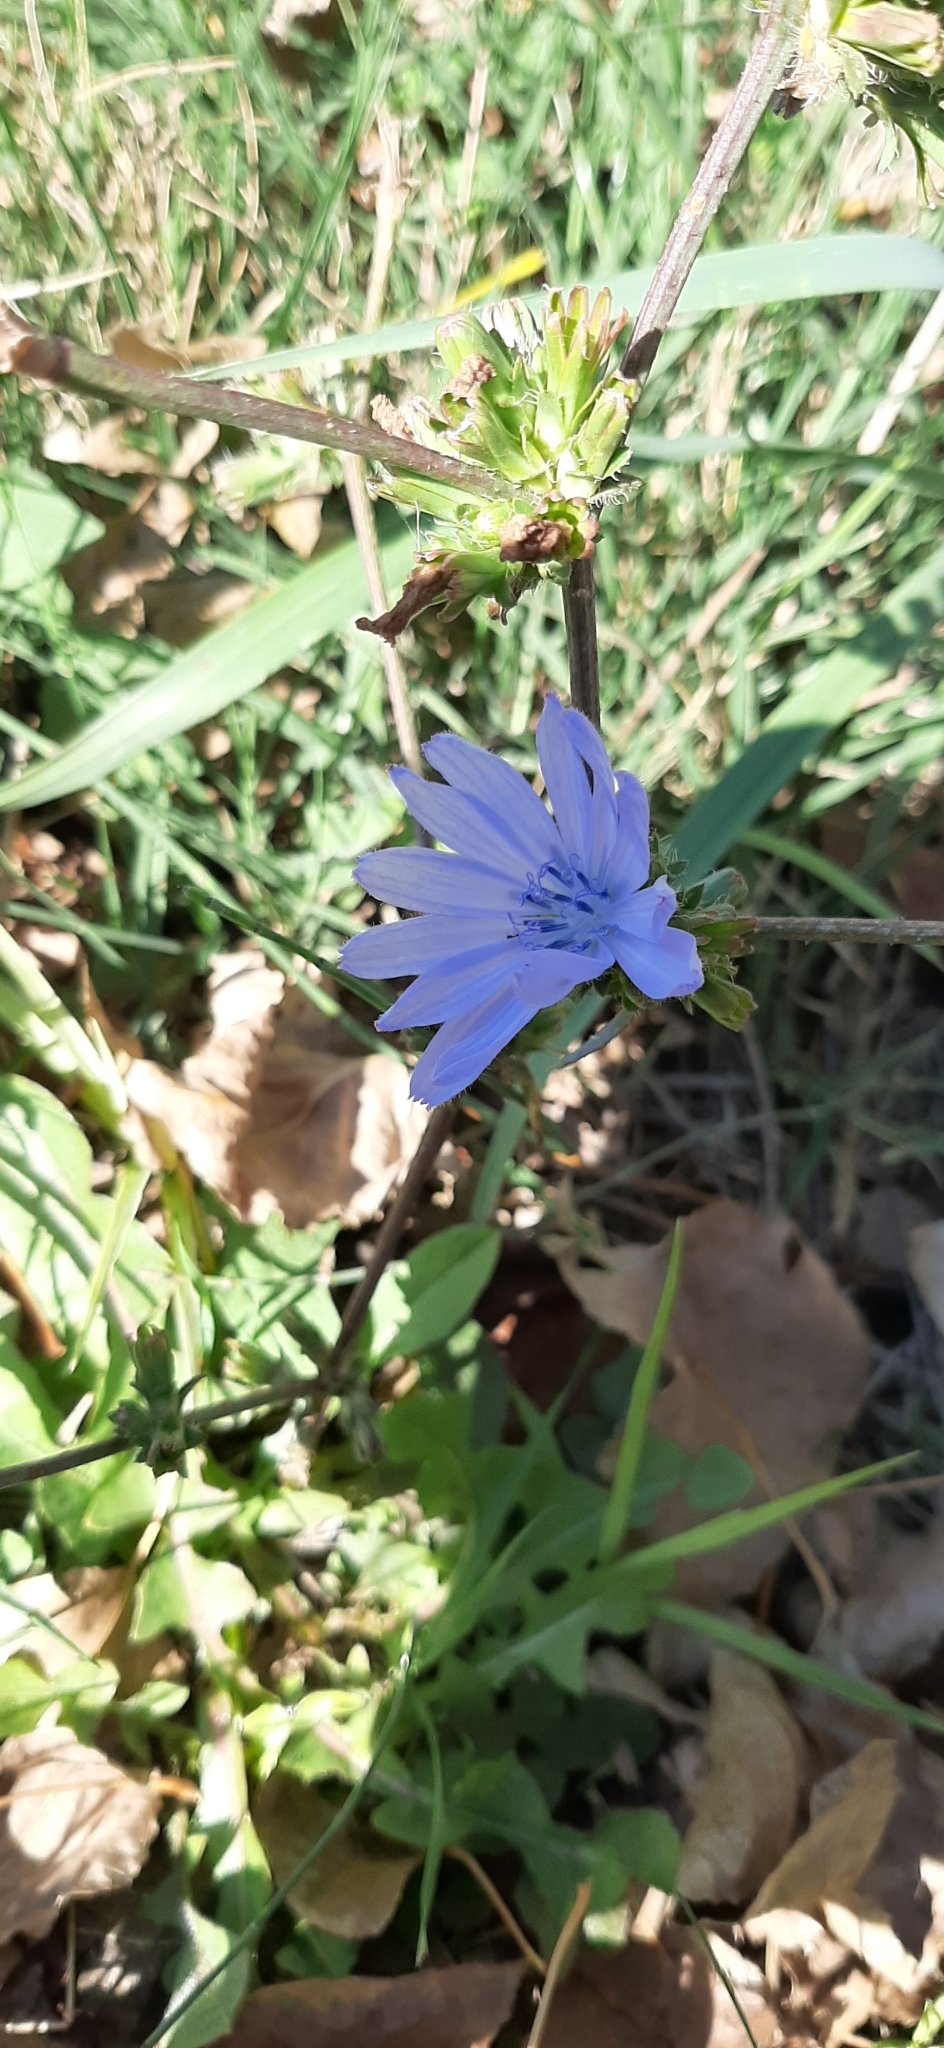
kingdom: Plantae
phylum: Tracheophyta
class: Magnoliopsida
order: Asterales
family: Asteraceae
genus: Cichorium
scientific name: Cichorium intybus
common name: Chicory
